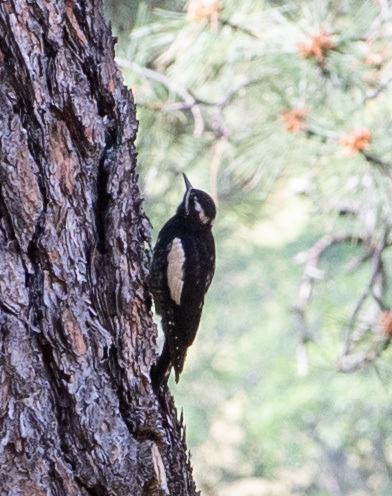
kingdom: Animalia
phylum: Chordata
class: Aves
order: Piciformes
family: Picidae
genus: Sphyrapicus
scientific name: Sphyrapicus thyroideus
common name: Williamson's sapsucker
